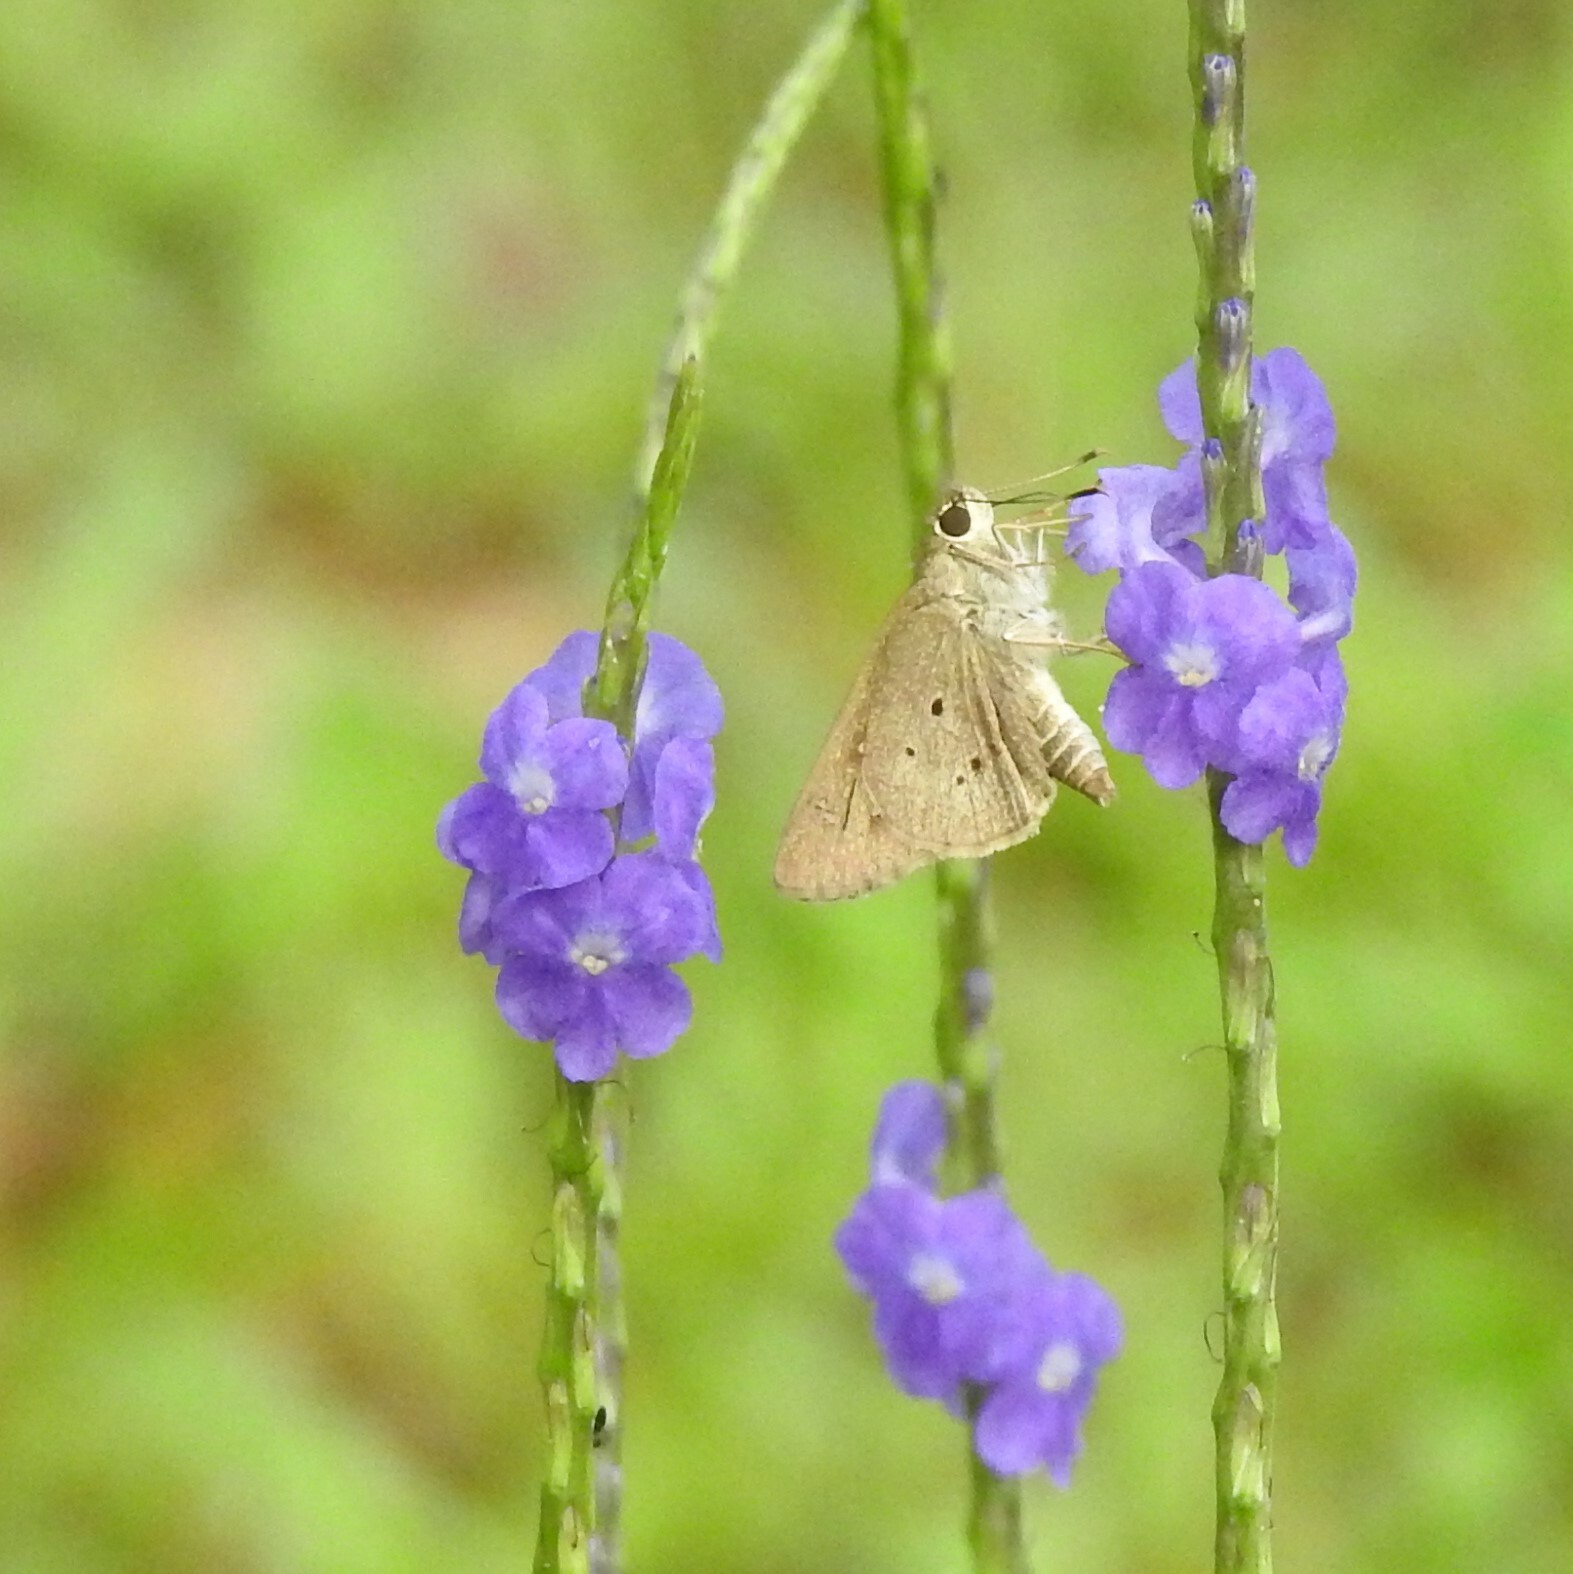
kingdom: Animalia
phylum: Arthropoda
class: Insecta
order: Lepidoptera
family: Hesperiidae
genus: Suastus
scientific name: Suastus gremius
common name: Indian palm bob
